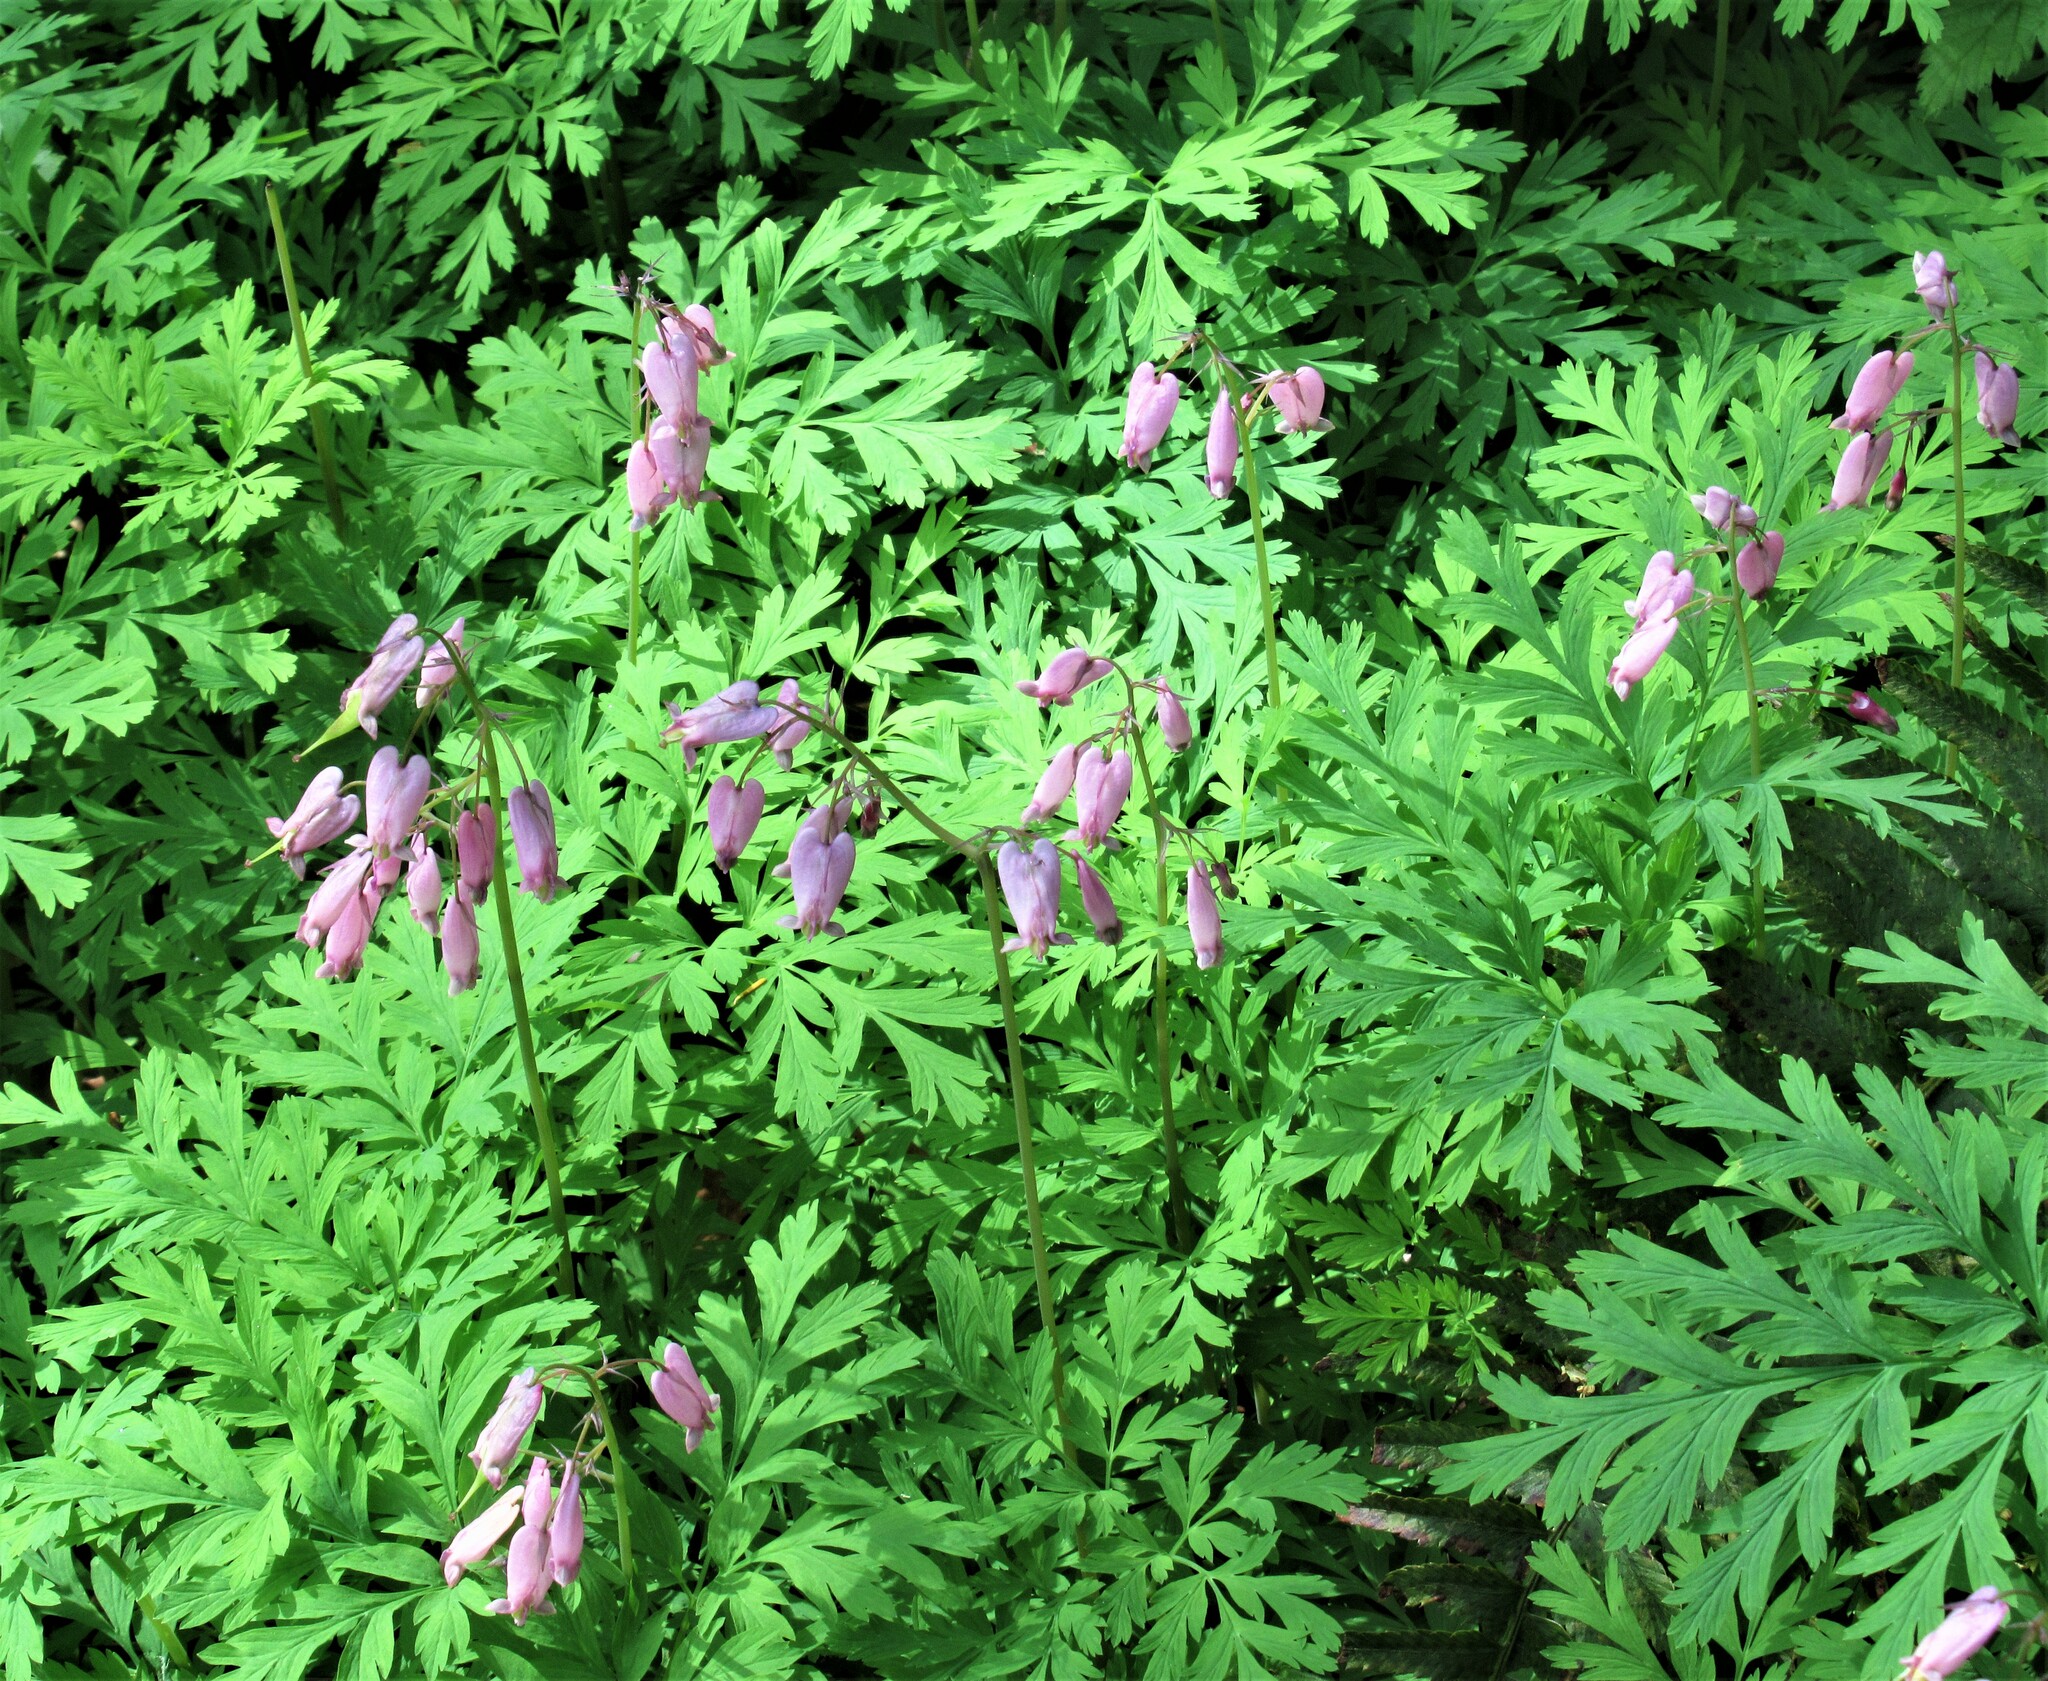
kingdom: Plantae
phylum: Tracheophyta
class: Magnoliopsida
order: Ranunculales
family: Papaveraceae
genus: Dicentra
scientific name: Dicentra formosa
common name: Bleeding-heart
